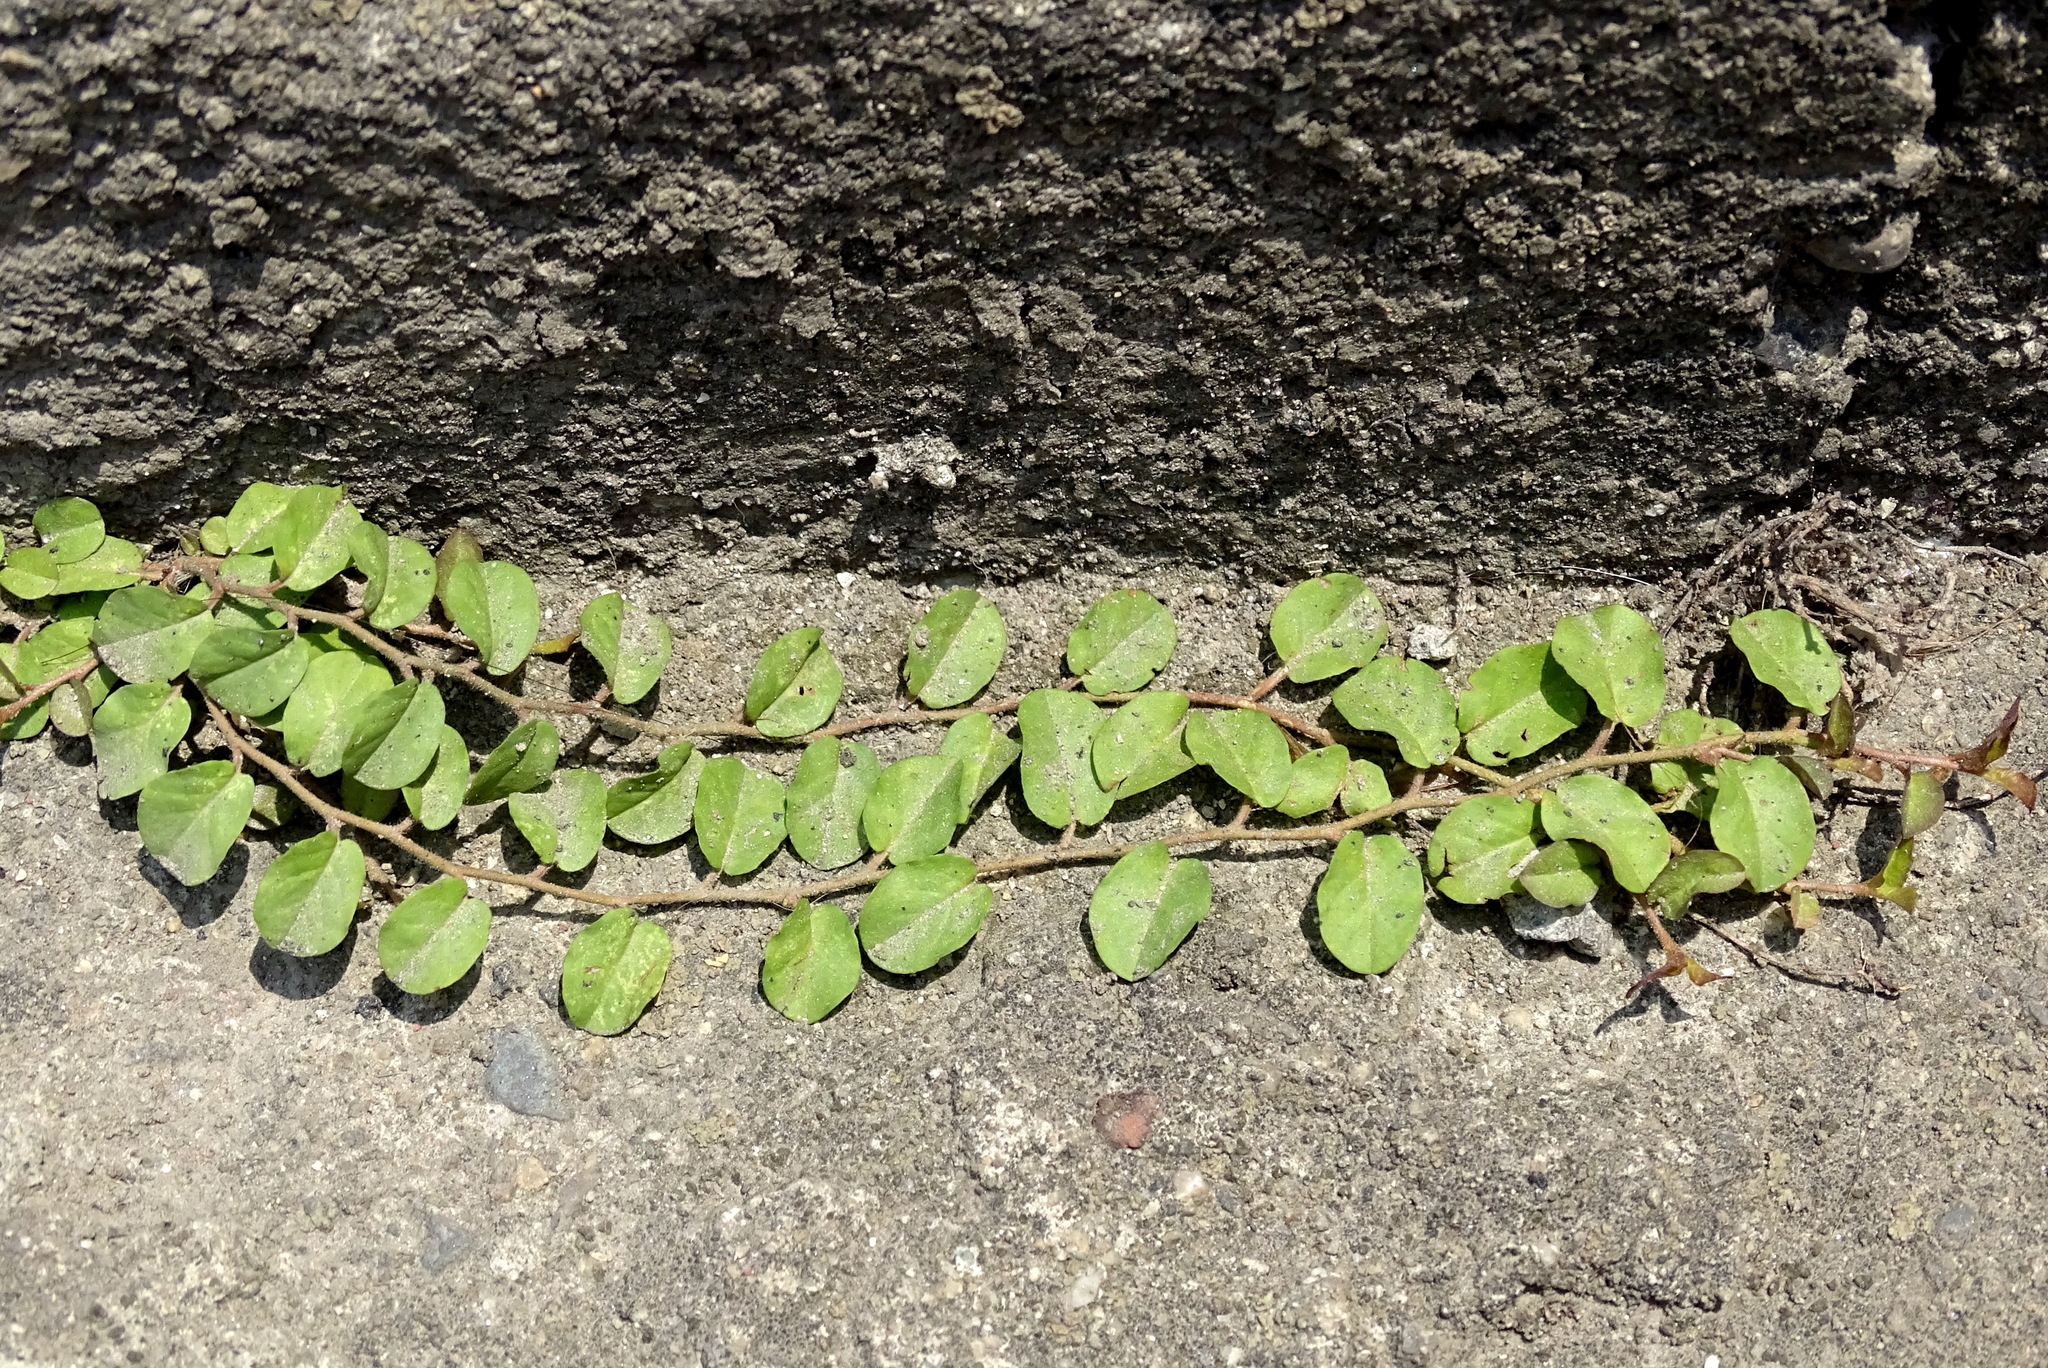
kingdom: Plantae
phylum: Tracheophyta
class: Magnoliopsida
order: Solanales
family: Convolvulaceae
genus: Evolvulus
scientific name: Evolvulus nummularius
